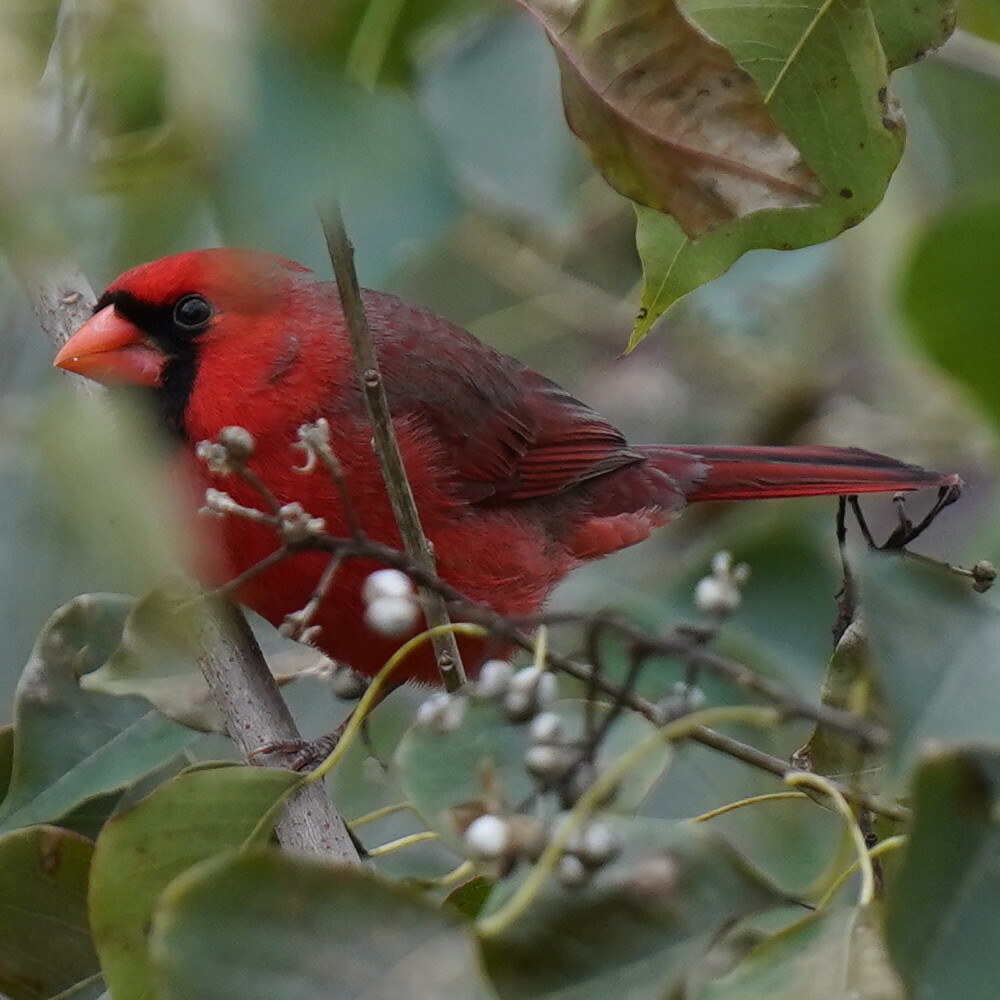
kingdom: Animalia
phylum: Chordata
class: Aves
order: Passeriformes
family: Cardinalidae
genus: Cardinalis
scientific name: Cardinalis cardinalis
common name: Northern cardinal
